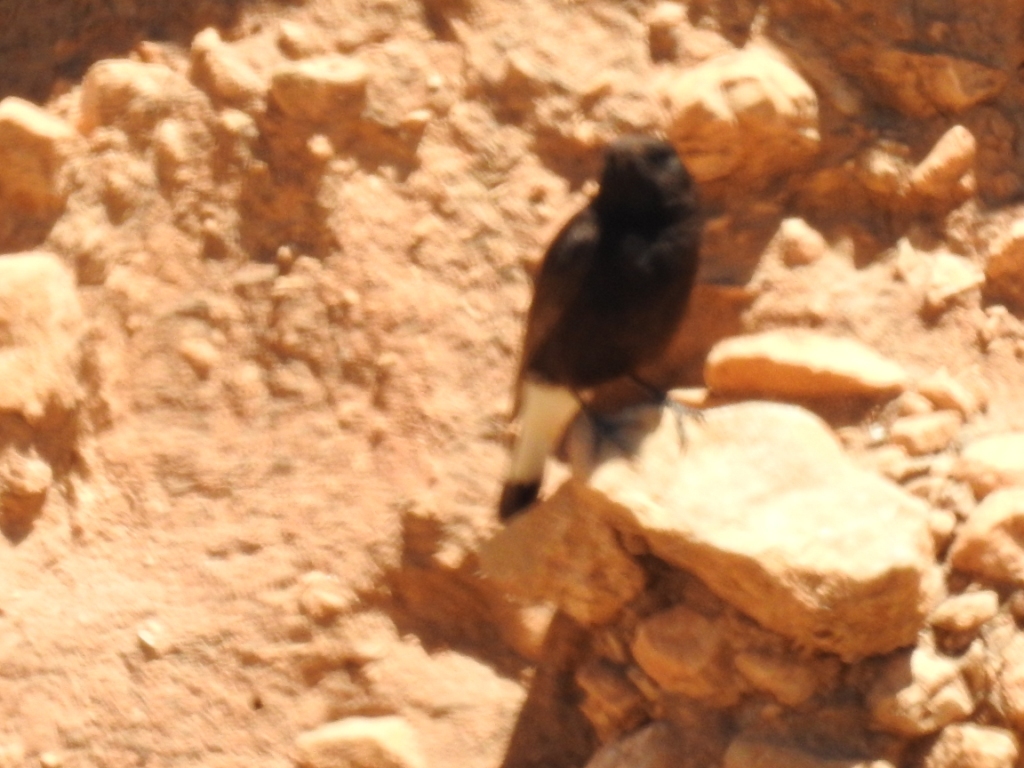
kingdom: Animalia
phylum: Chordata
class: Aves
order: Passeriformes
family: Muscicapidae
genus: Oenanthe
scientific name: Oenanthe leucura
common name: Black wheatear
